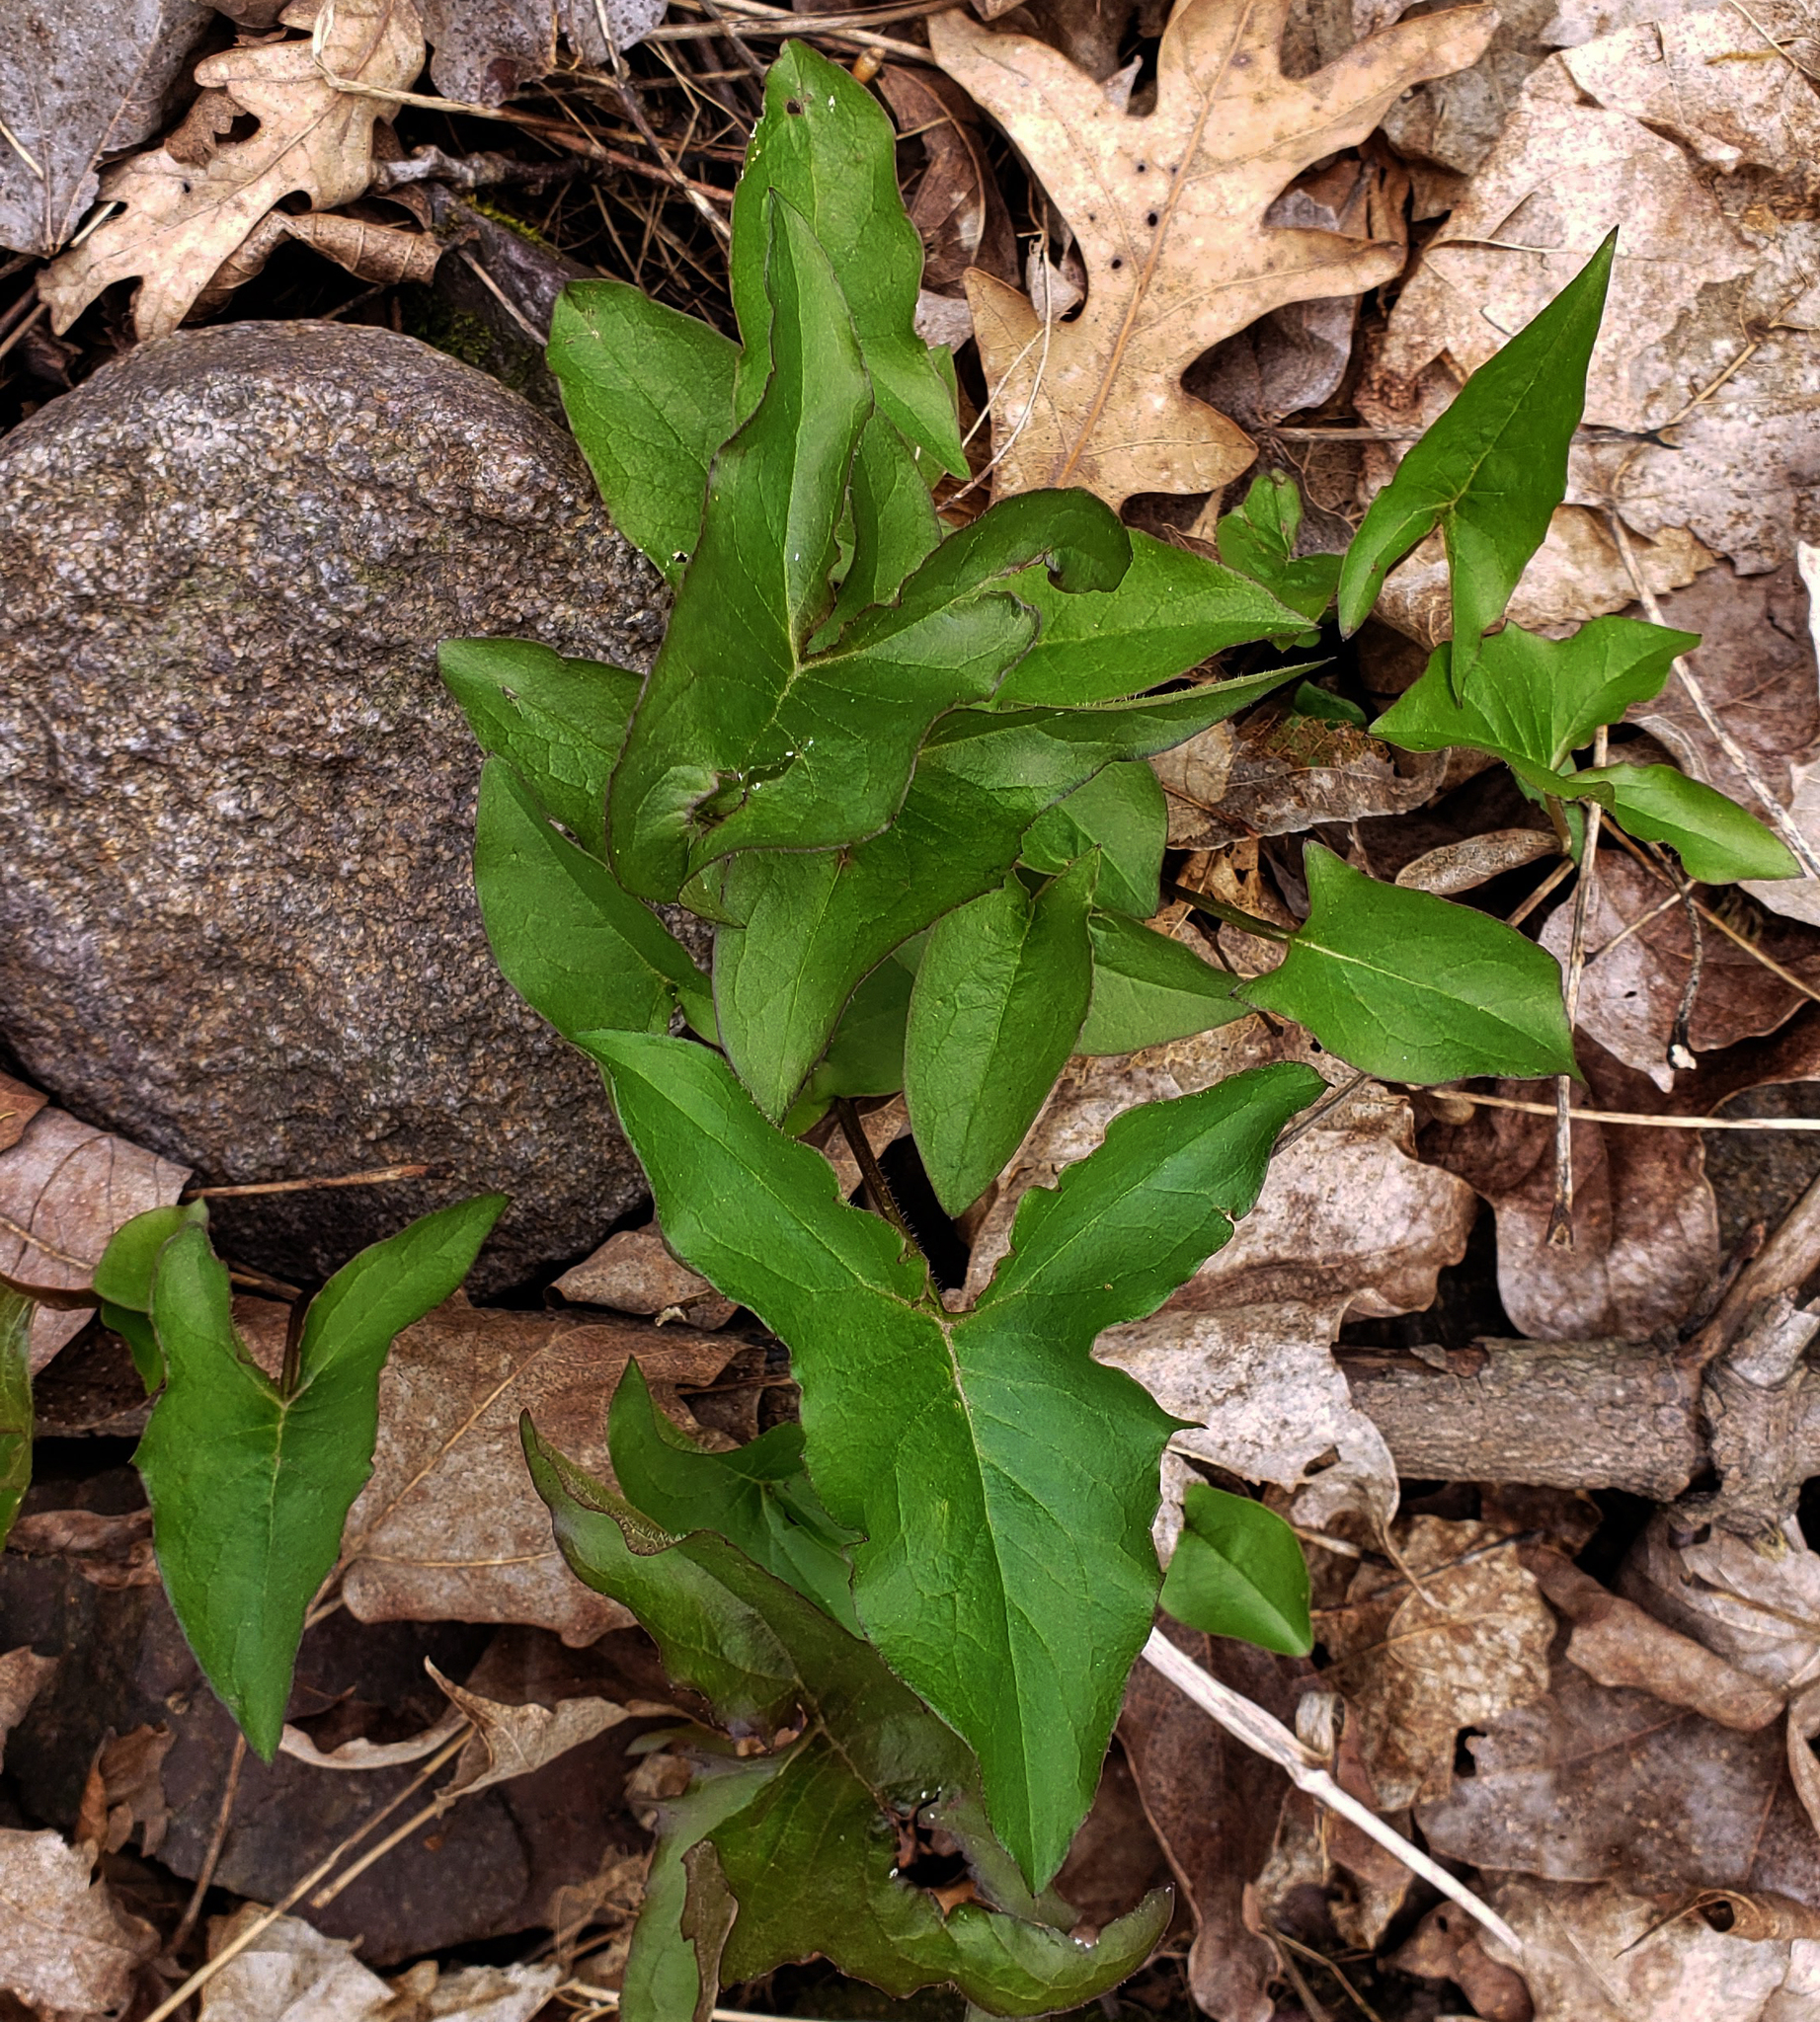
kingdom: Plantae
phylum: Tracheophyta
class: Magnoliopsida
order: Asterales
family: Asteraceae
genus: Nabalus
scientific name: Nabalus albus
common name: White rattlesnakeroot
